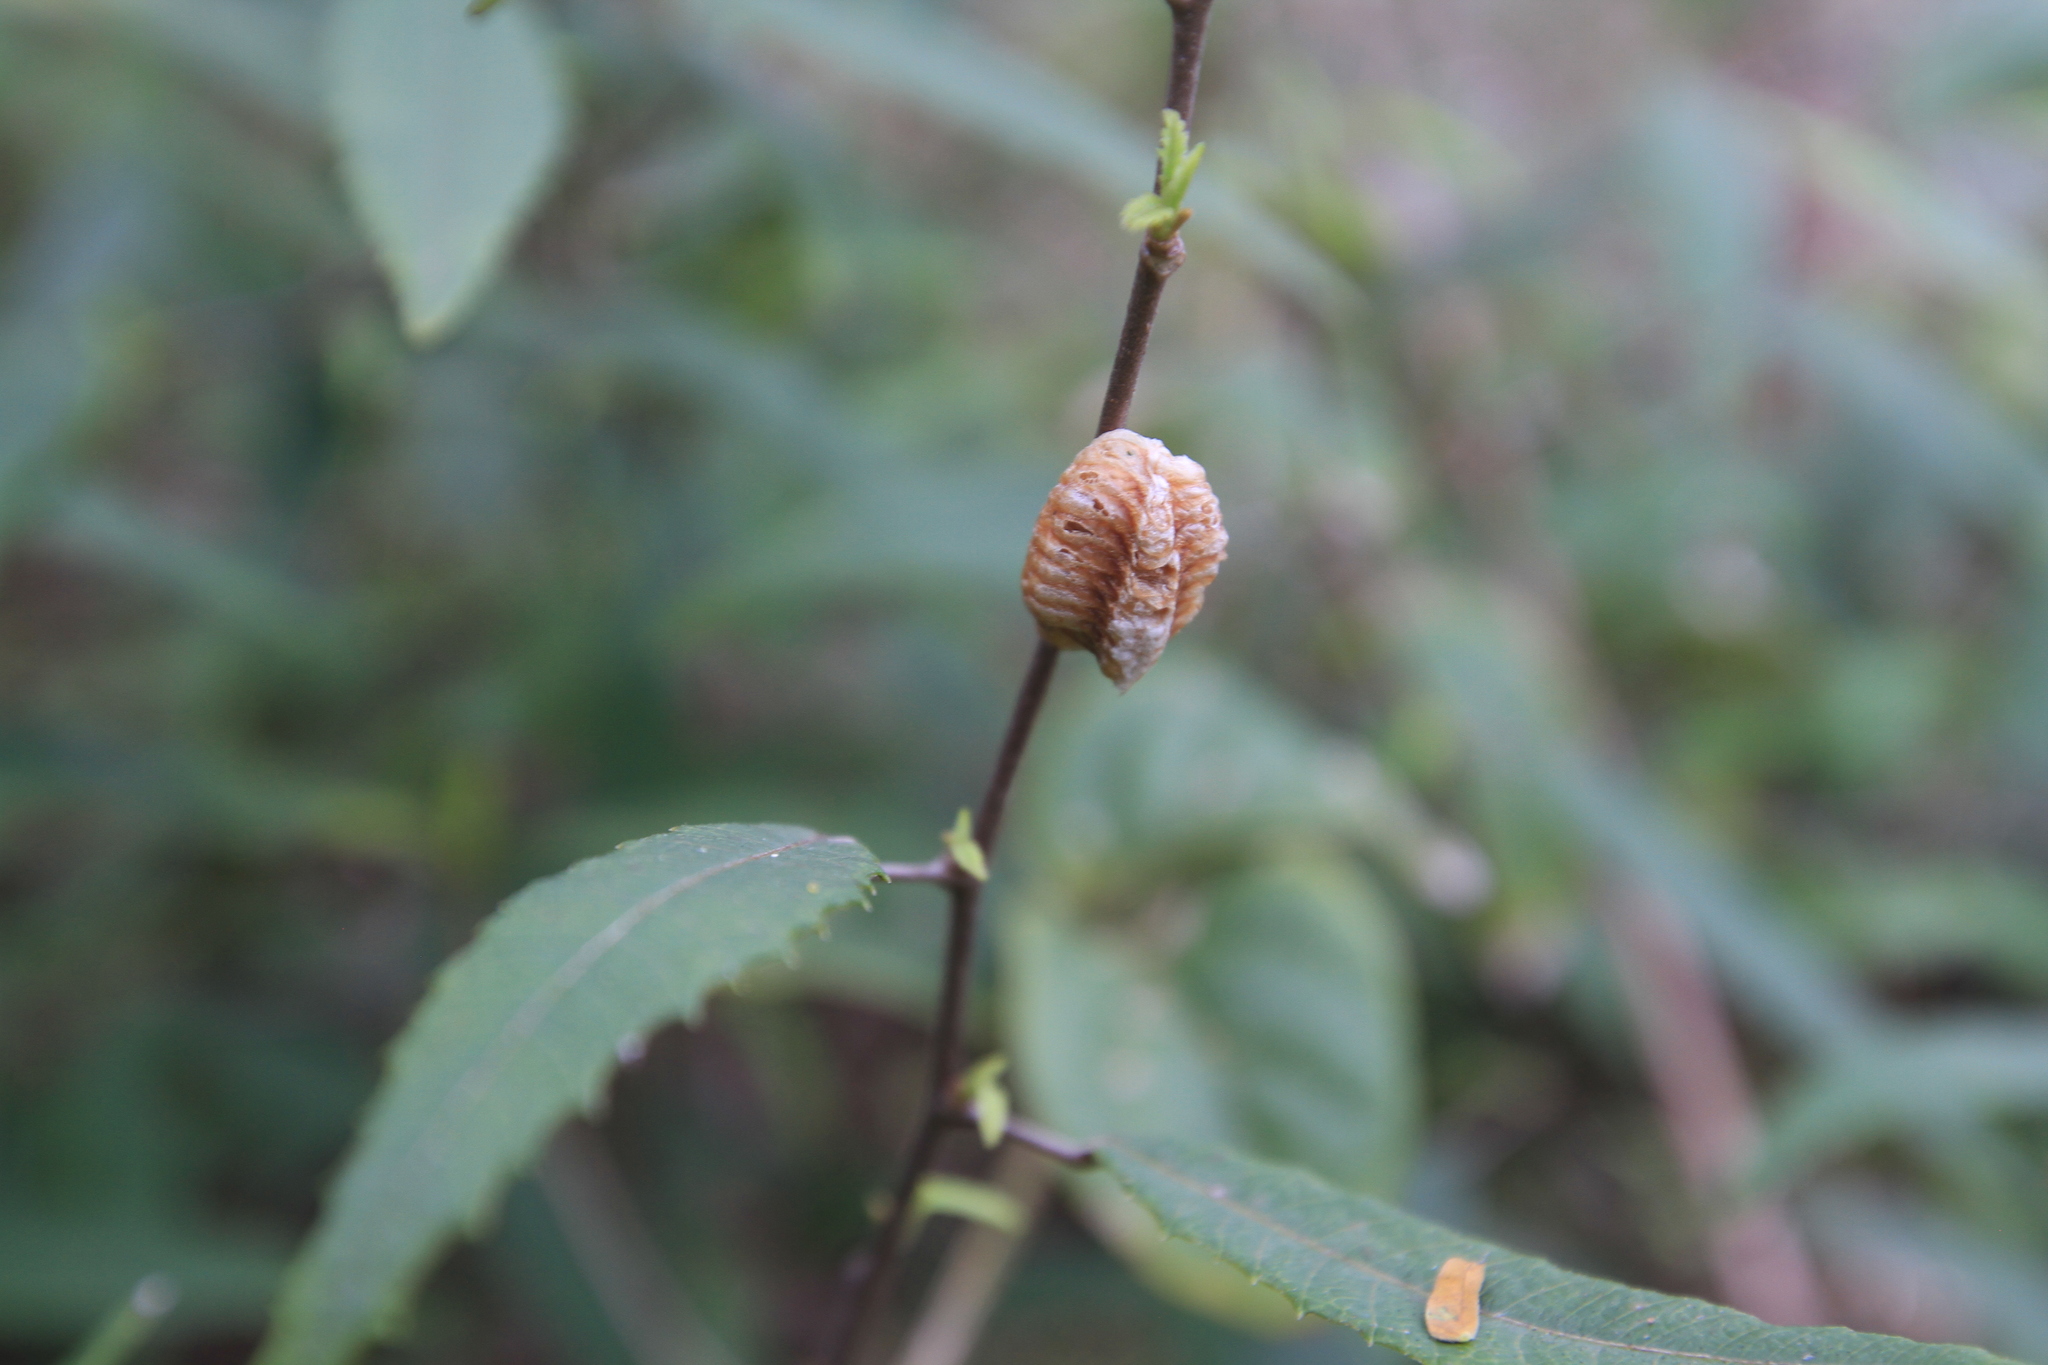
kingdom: Animalia
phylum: Arthropoda
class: Insecta
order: Mantodea
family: Mantidae
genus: Stagmomantis
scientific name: Stagmomantis domingensis
